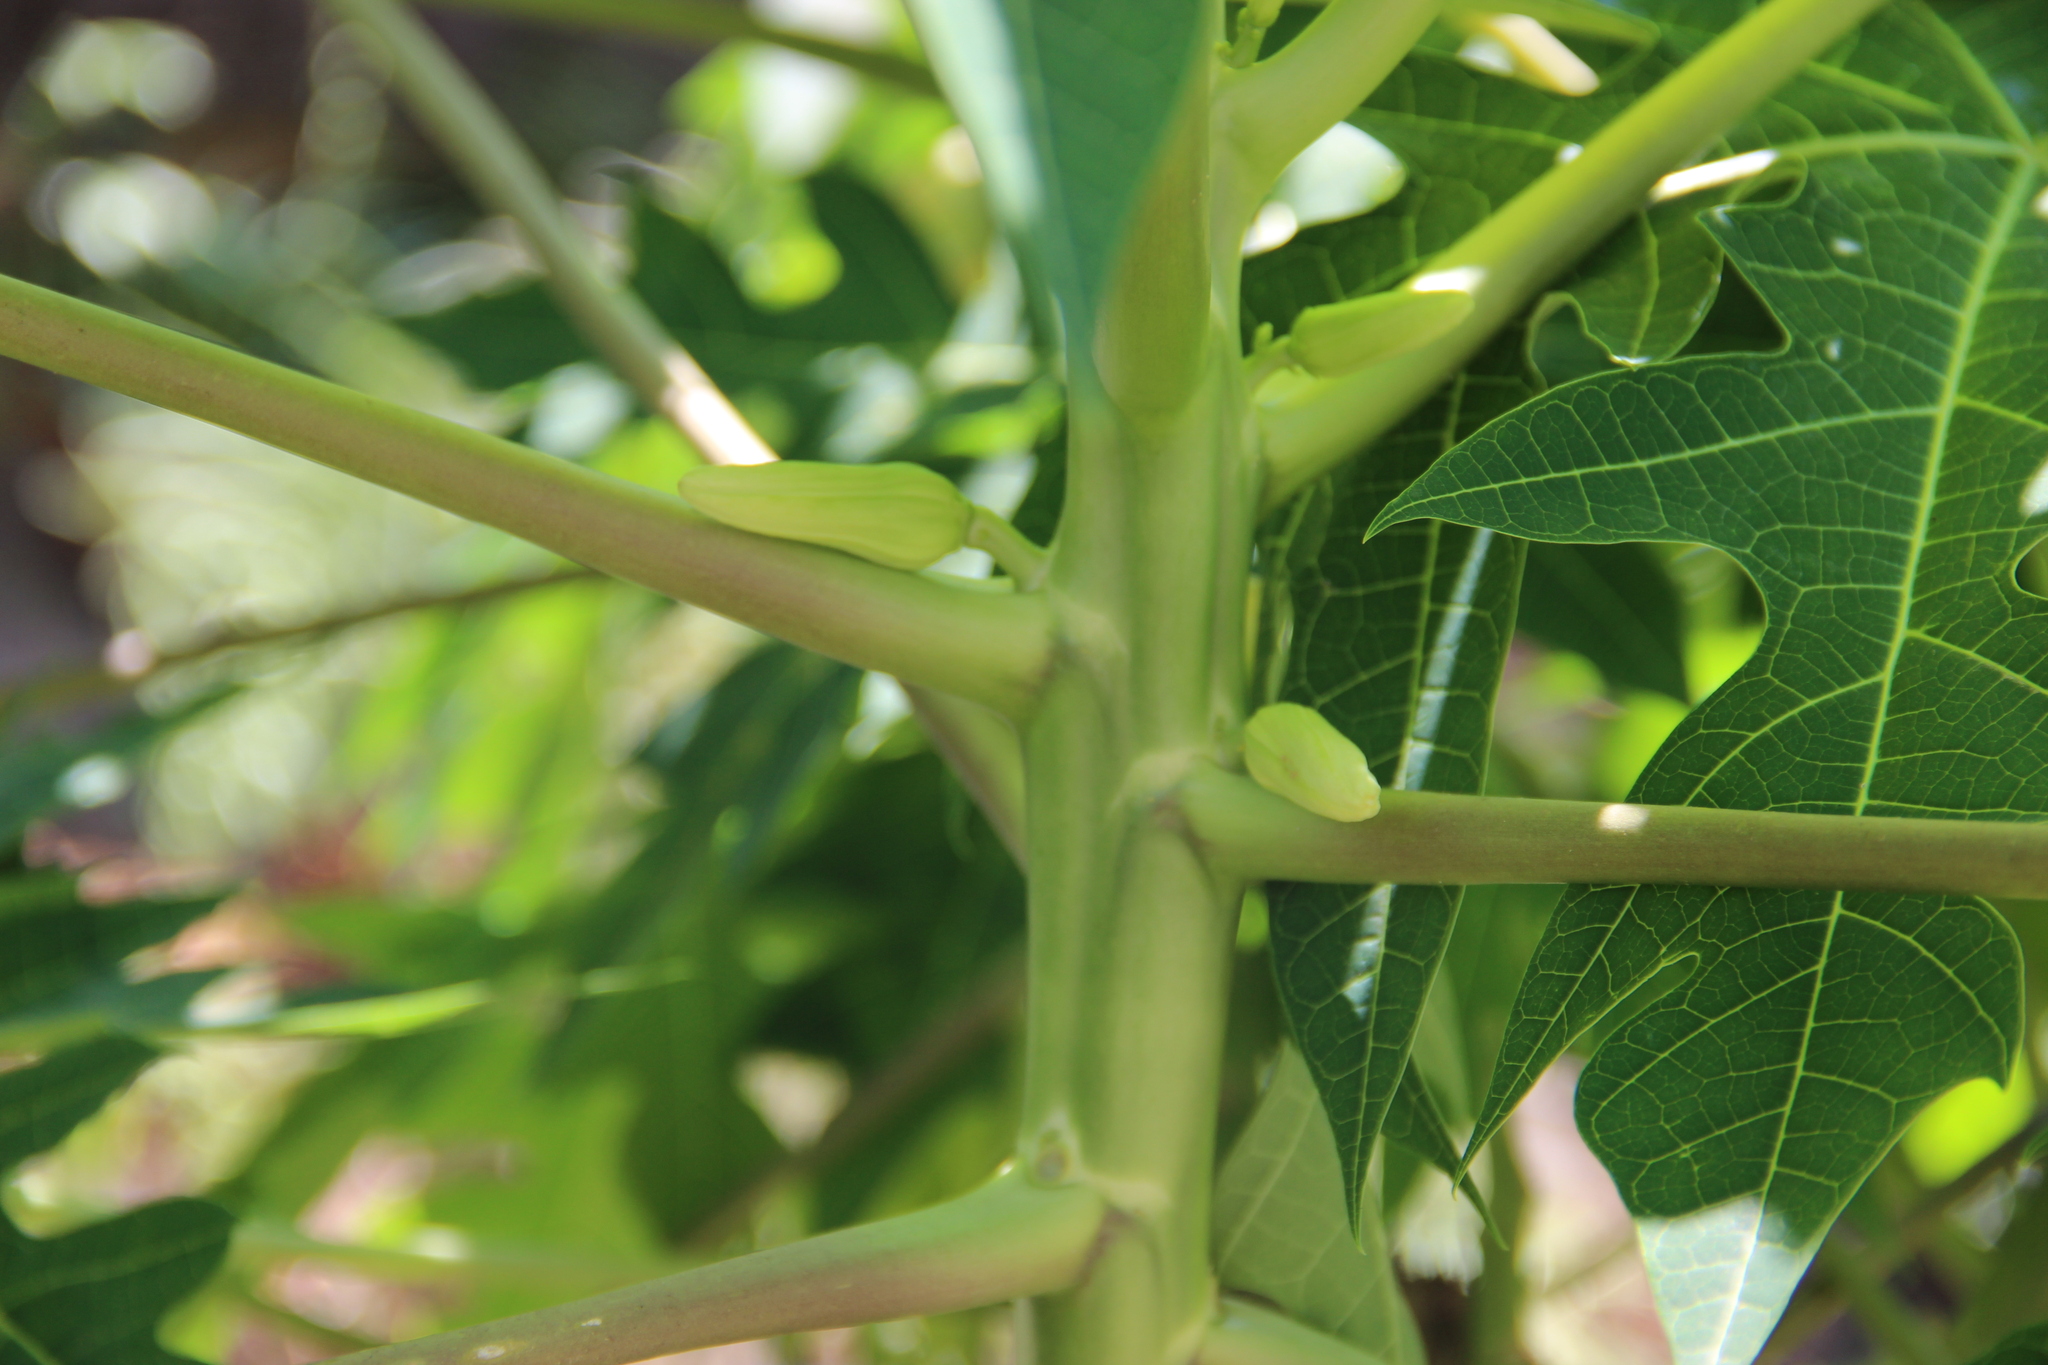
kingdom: Plantae
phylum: Tracheophyta
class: Magnoliopsida
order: Brassicales
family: Caricaceae
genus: Carica
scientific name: Carica papaya
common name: Papaya
